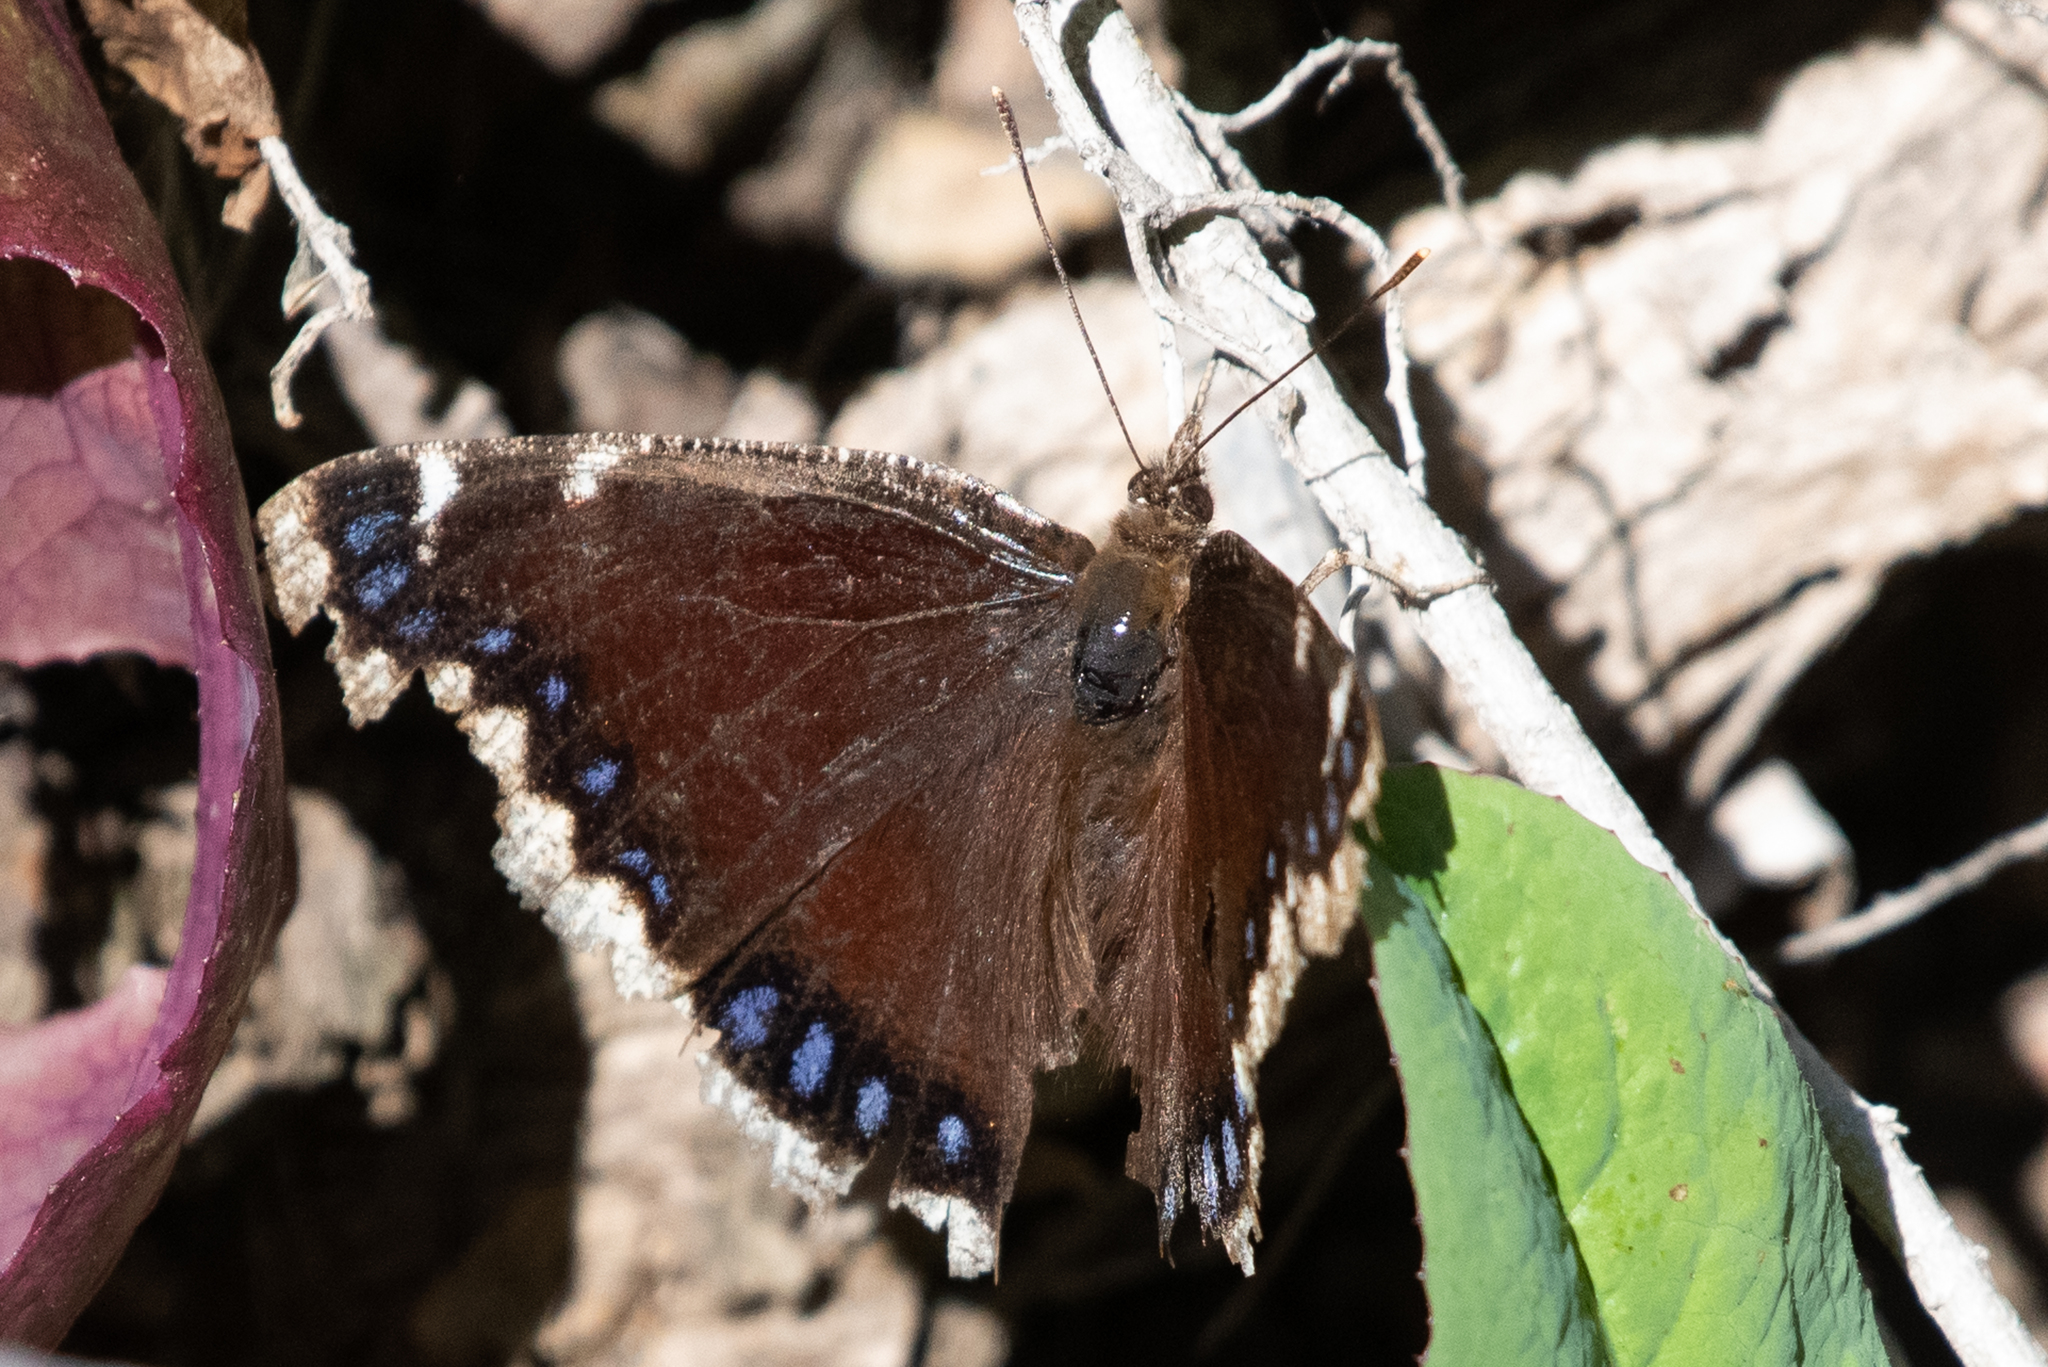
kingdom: Animalia
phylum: Arthropoda
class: Insecta
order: Lepidoptera
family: Nymphalidae
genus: Nymphalis
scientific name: Nymphalis antiopa
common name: Camberwell beauty
